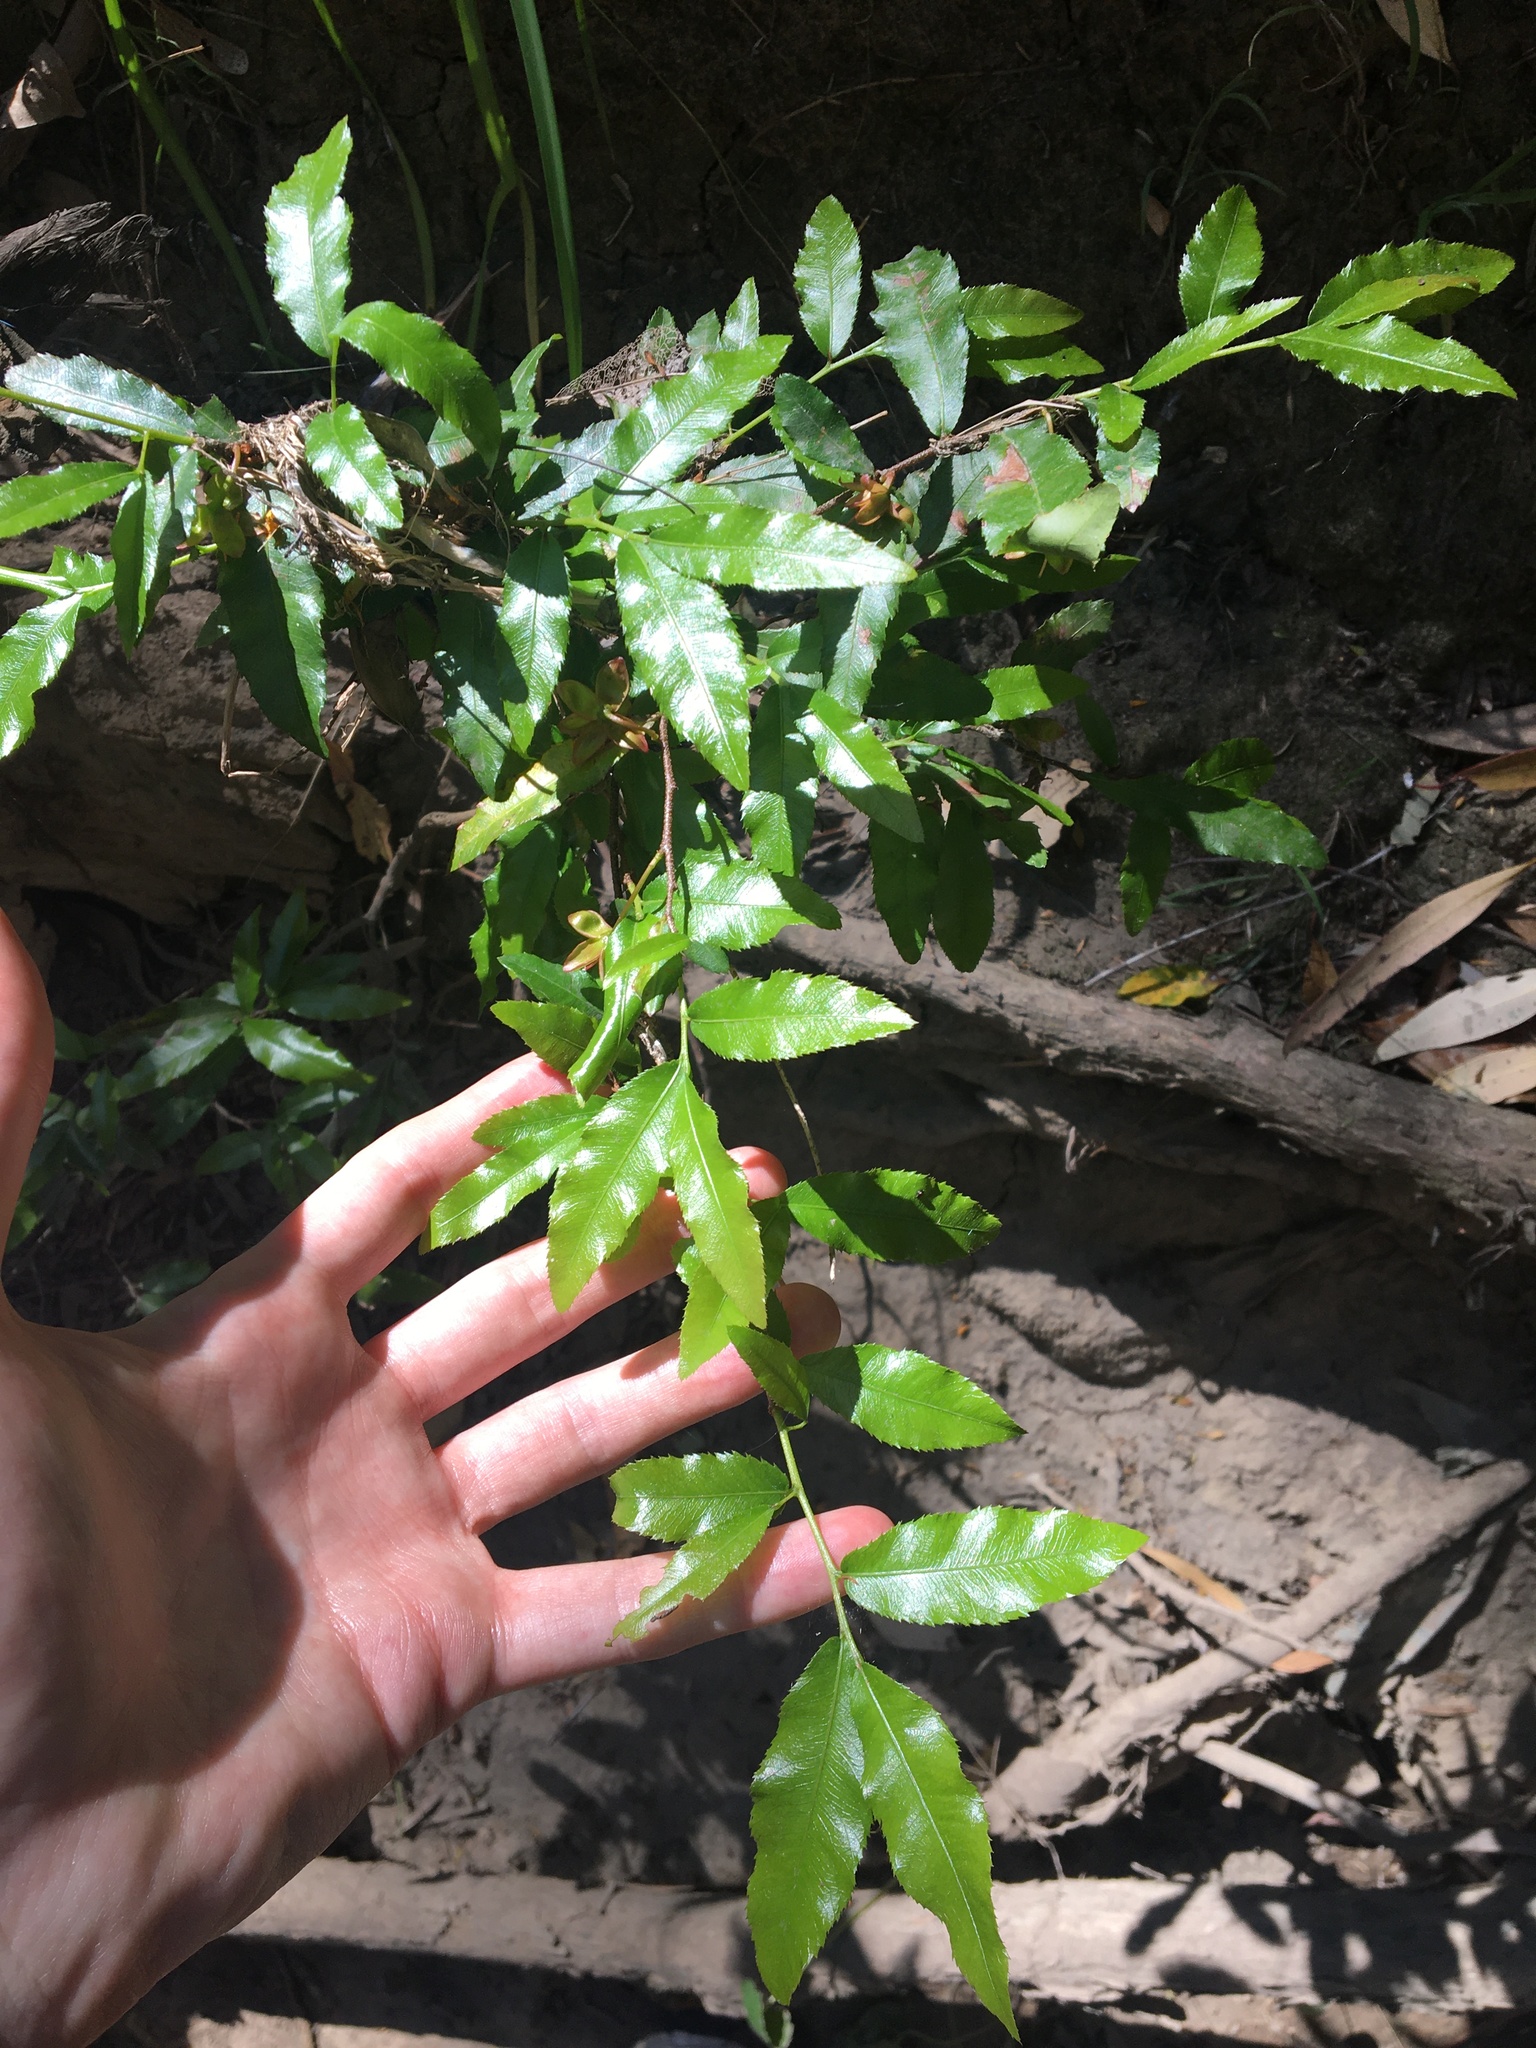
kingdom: Plantae
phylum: Tracheophyta
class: Magnoliopsida
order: Malpighiales
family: Ochnaceae
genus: Ochna
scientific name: Ochna serrulata
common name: Mickey mouse plant
